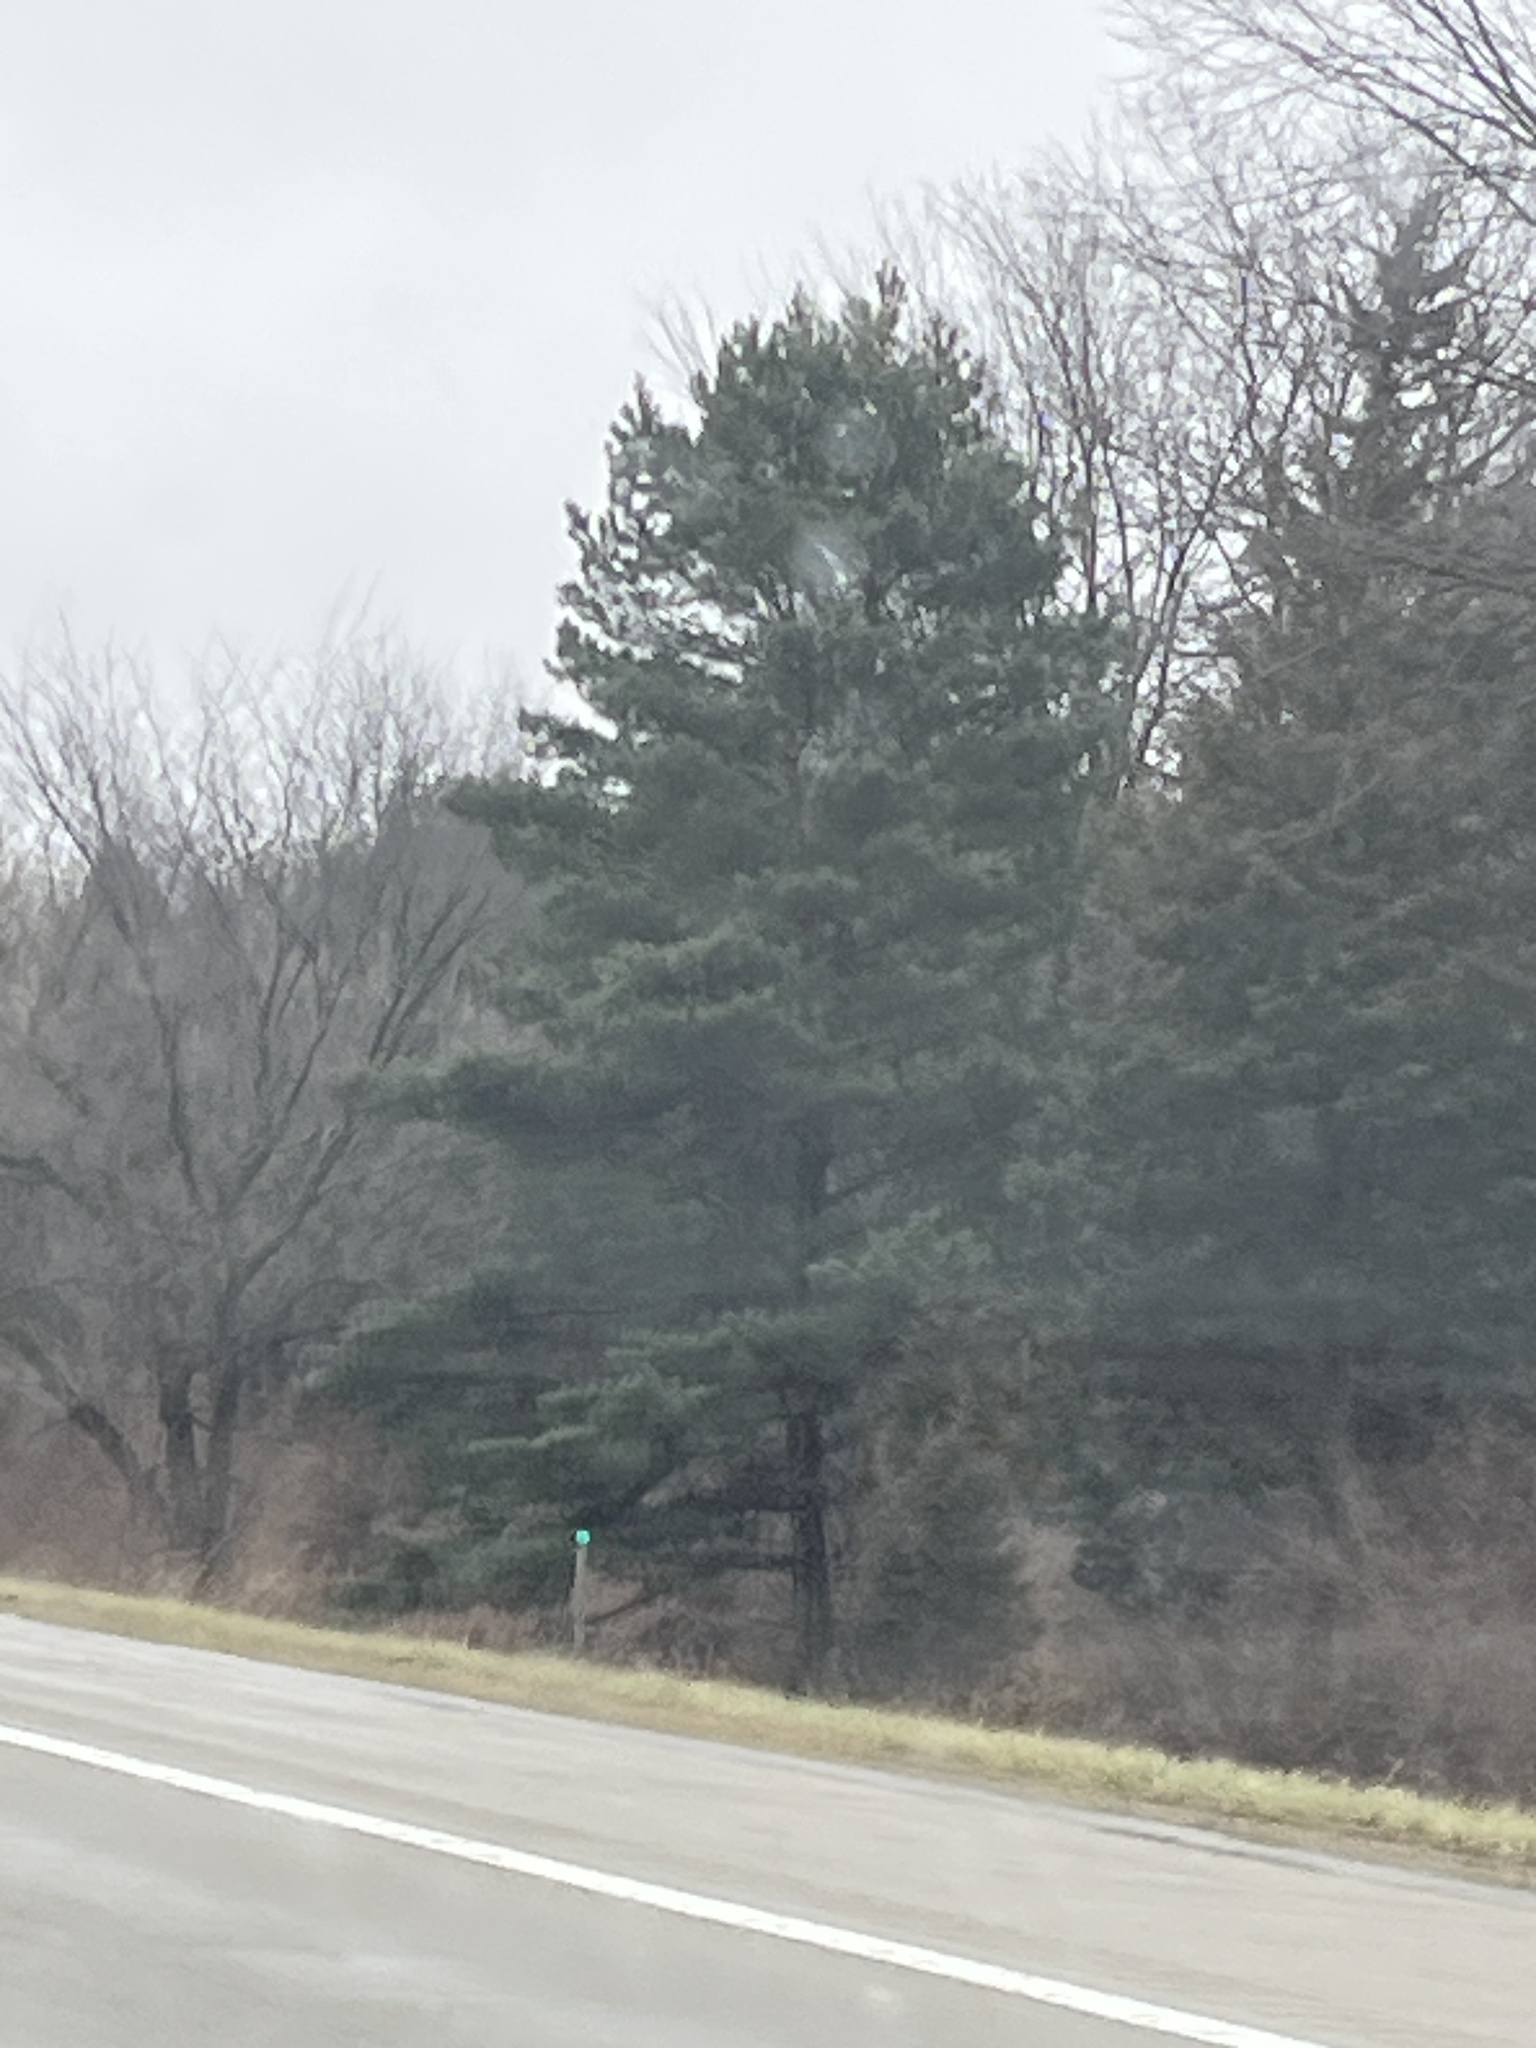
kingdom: Plantae
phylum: Tracheophyta
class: Pinopsida
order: Pinales
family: Pinaceae
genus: Pinus
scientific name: Pinus strobus
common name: Weymouth pine
